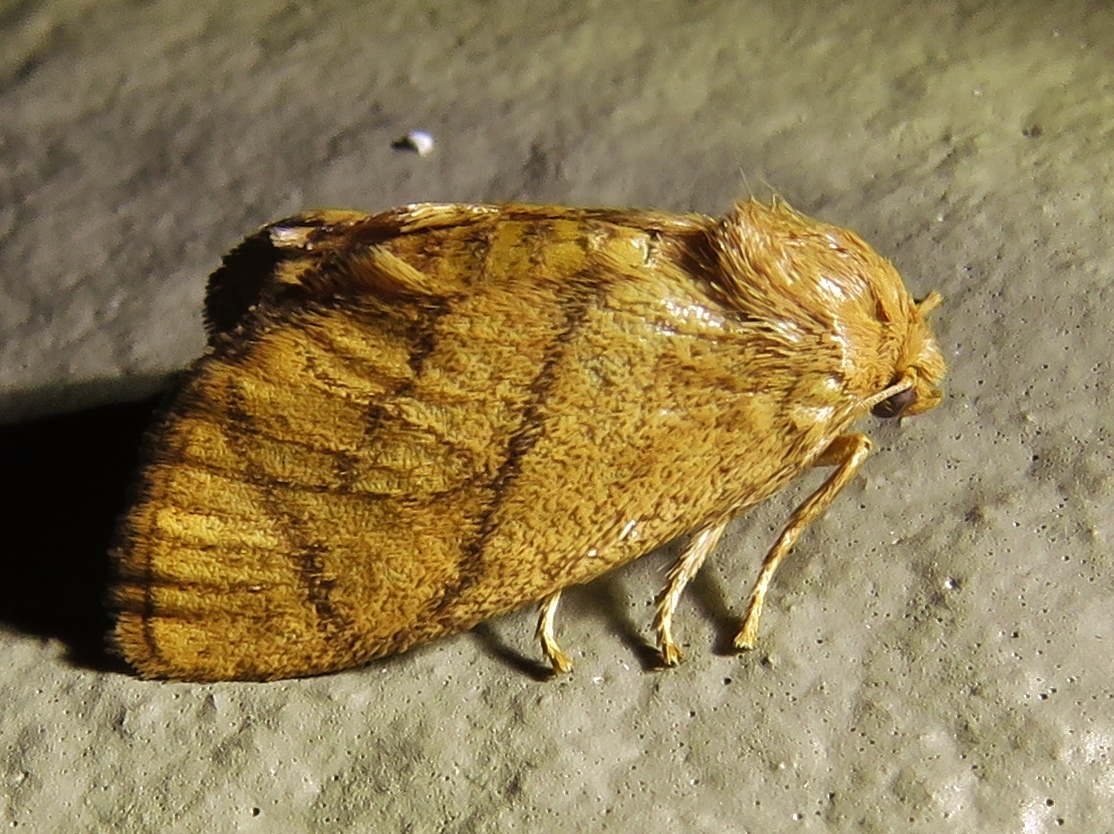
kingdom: Animalia
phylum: Arthropoda
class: Insecta
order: Lepidoptera
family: Limacodidae
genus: Apoda
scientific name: Apoda y-inversa
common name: Yellow-collared slug moth
